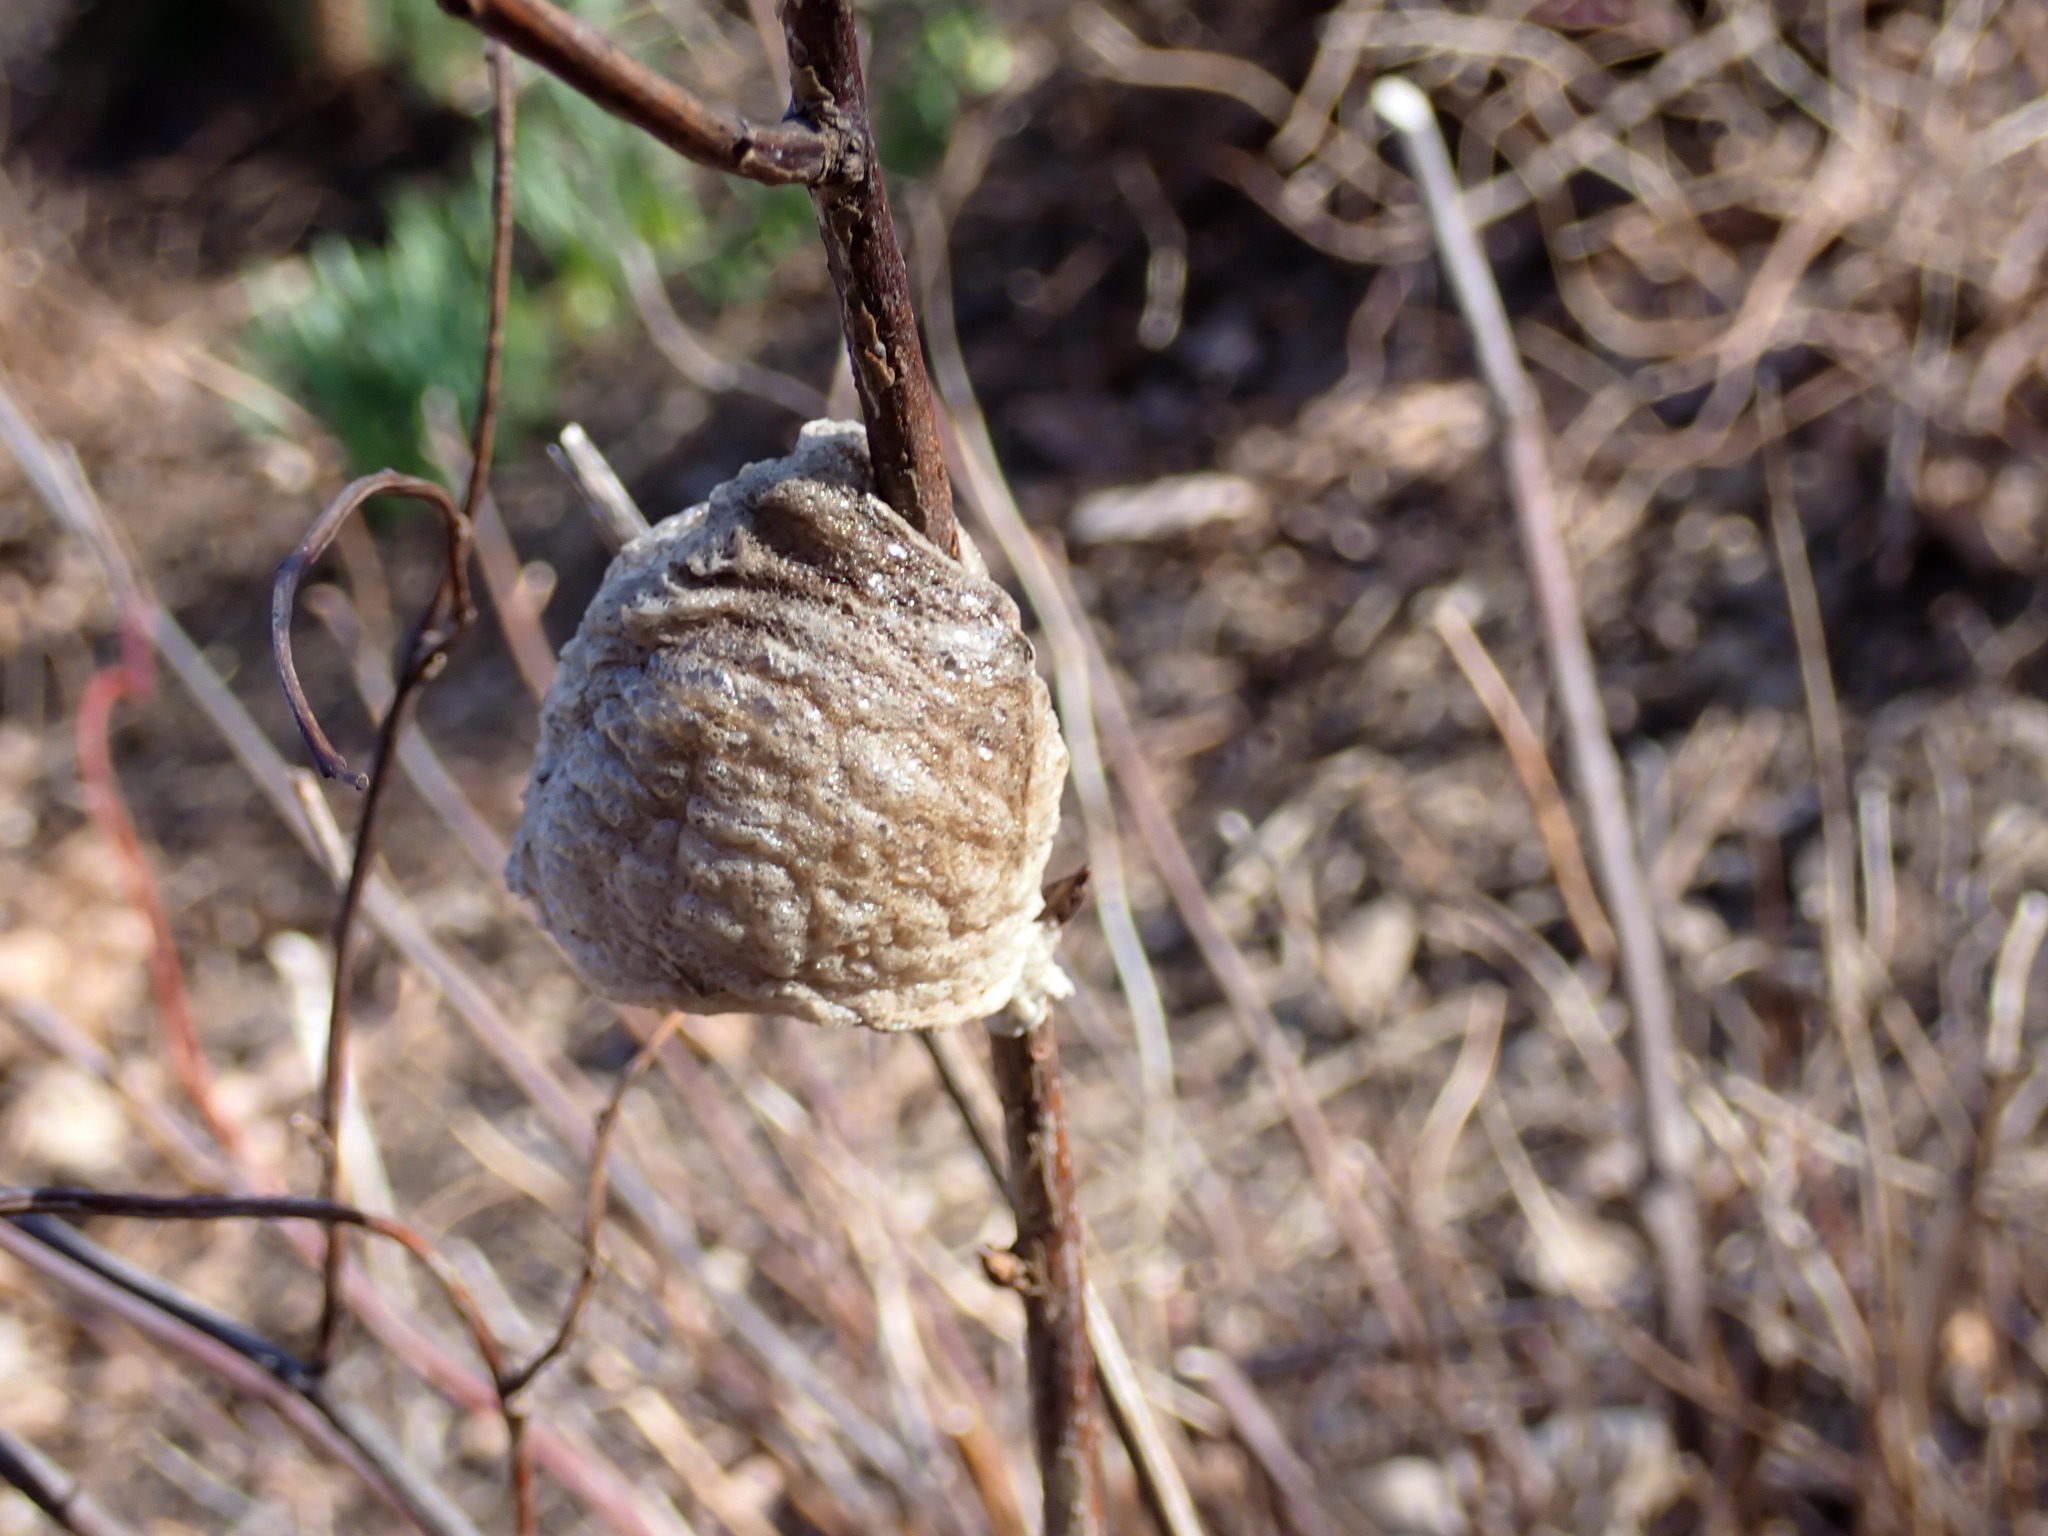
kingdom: Animalia
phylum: Arthropoda
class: Insecta
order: Mantodea
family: Mantidae
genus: Tenodera
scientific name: Tenodera sinensis
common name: Chinese mantis
